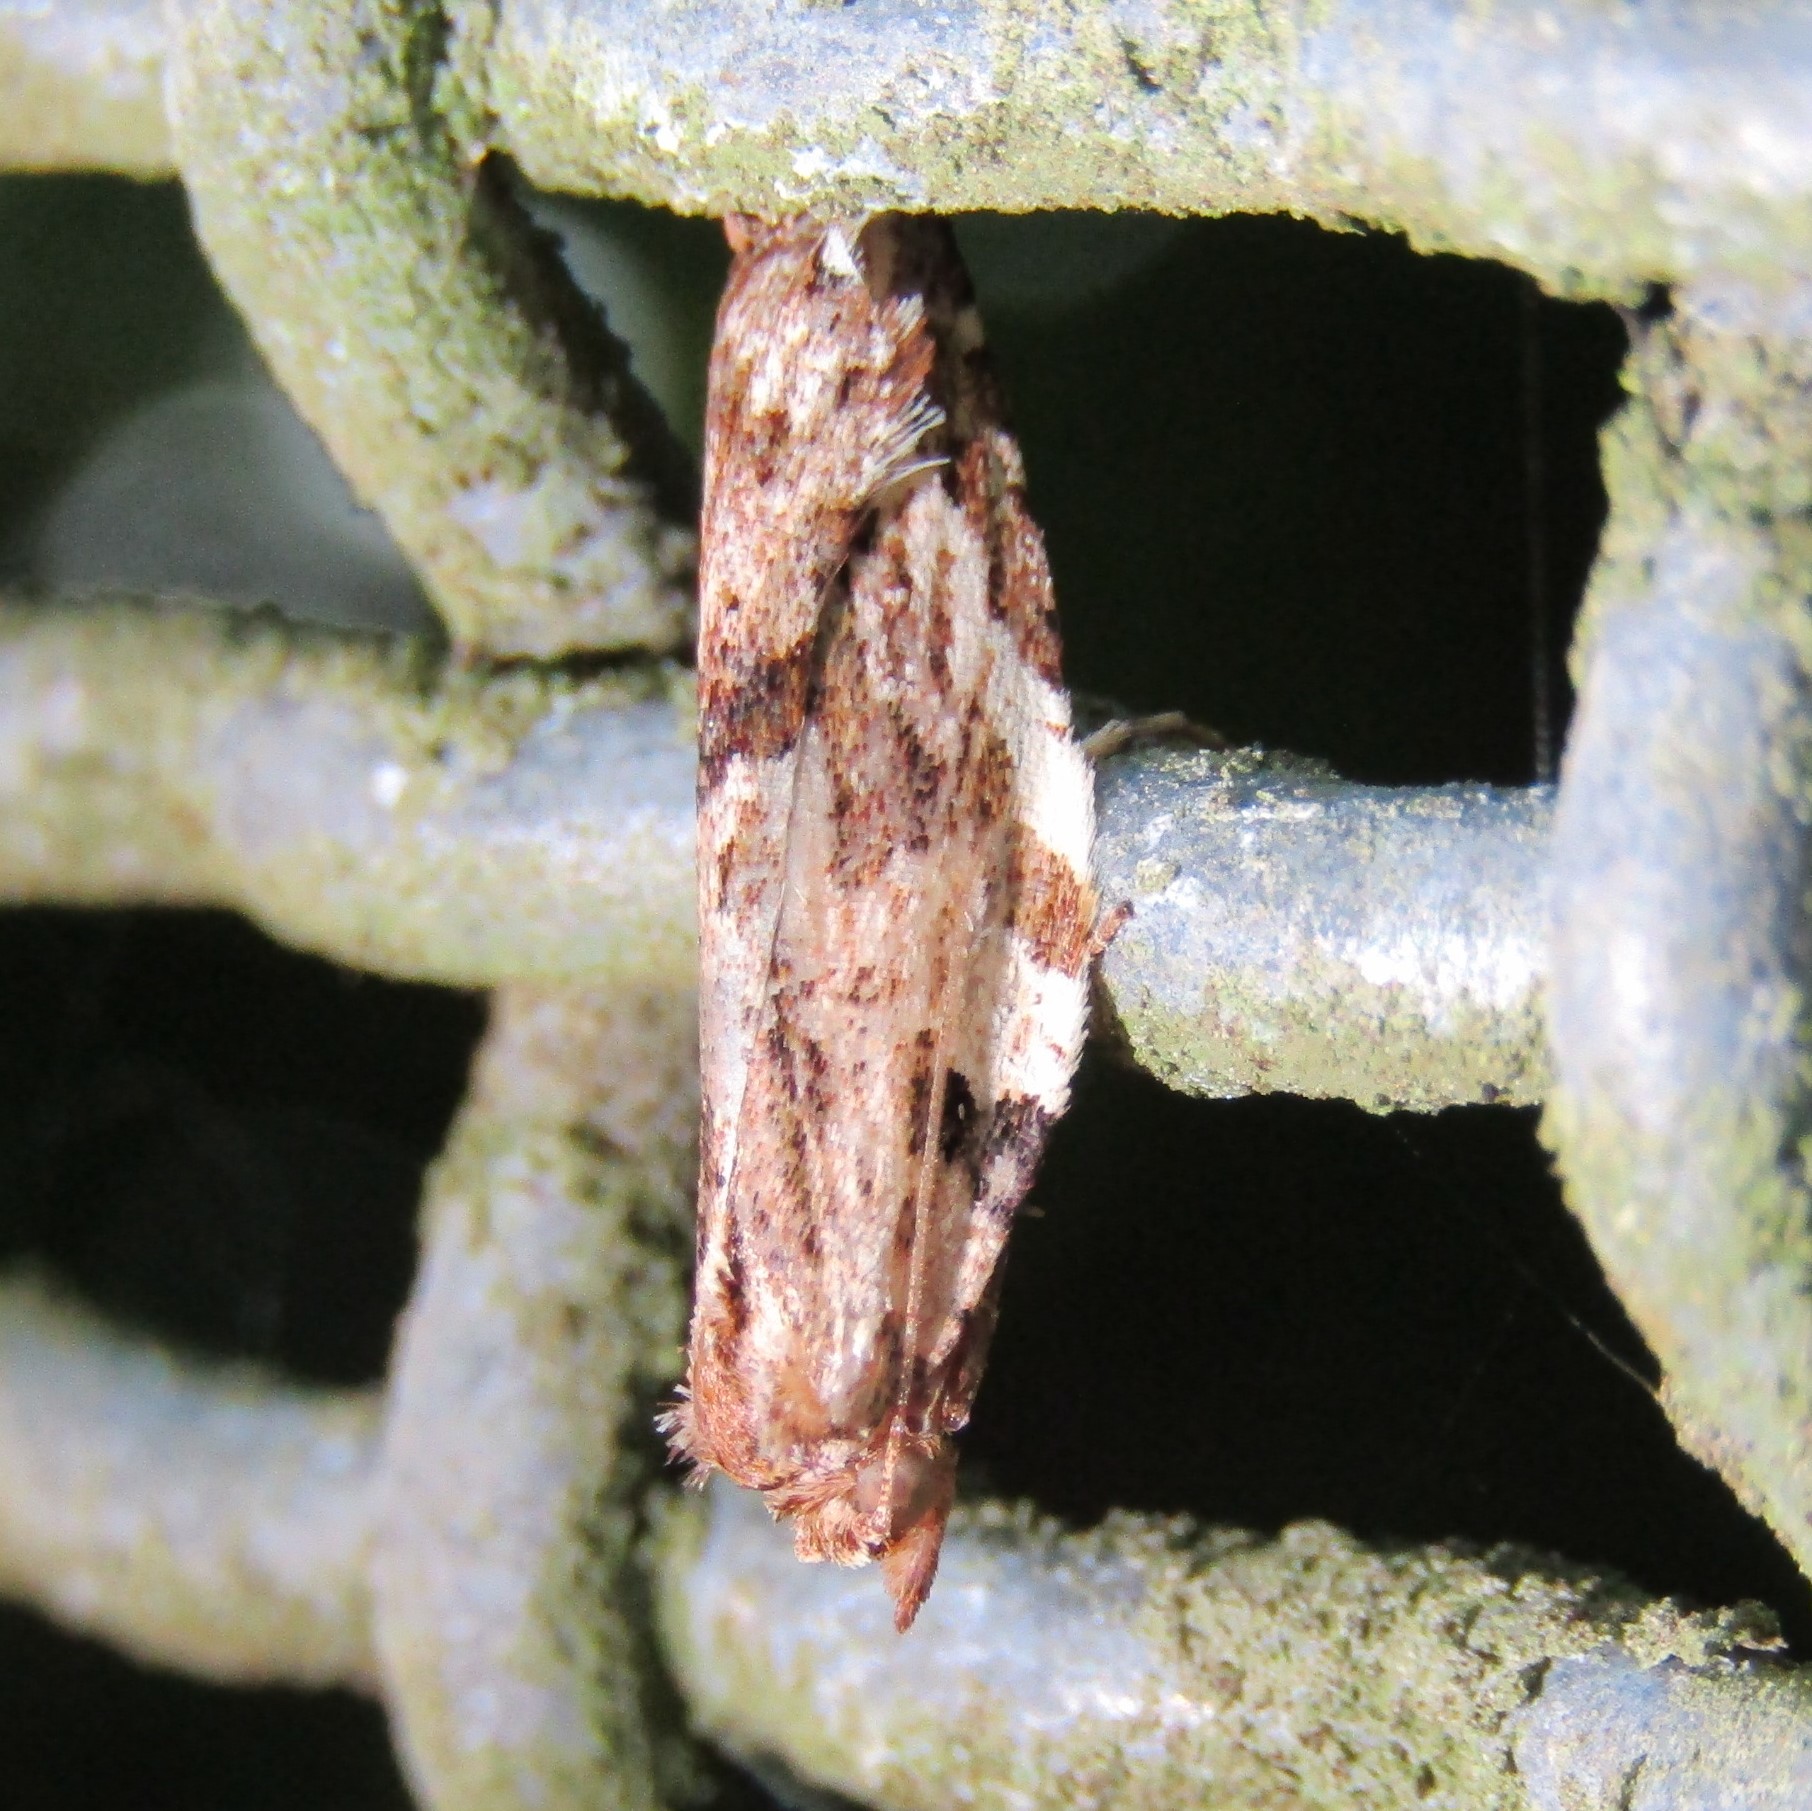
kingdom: Animalia
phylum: Arthropoda
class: Insecta
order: Lepidoptera
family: Tortricidae
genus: Epalxiphora
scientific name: Epalxiphora axenana
